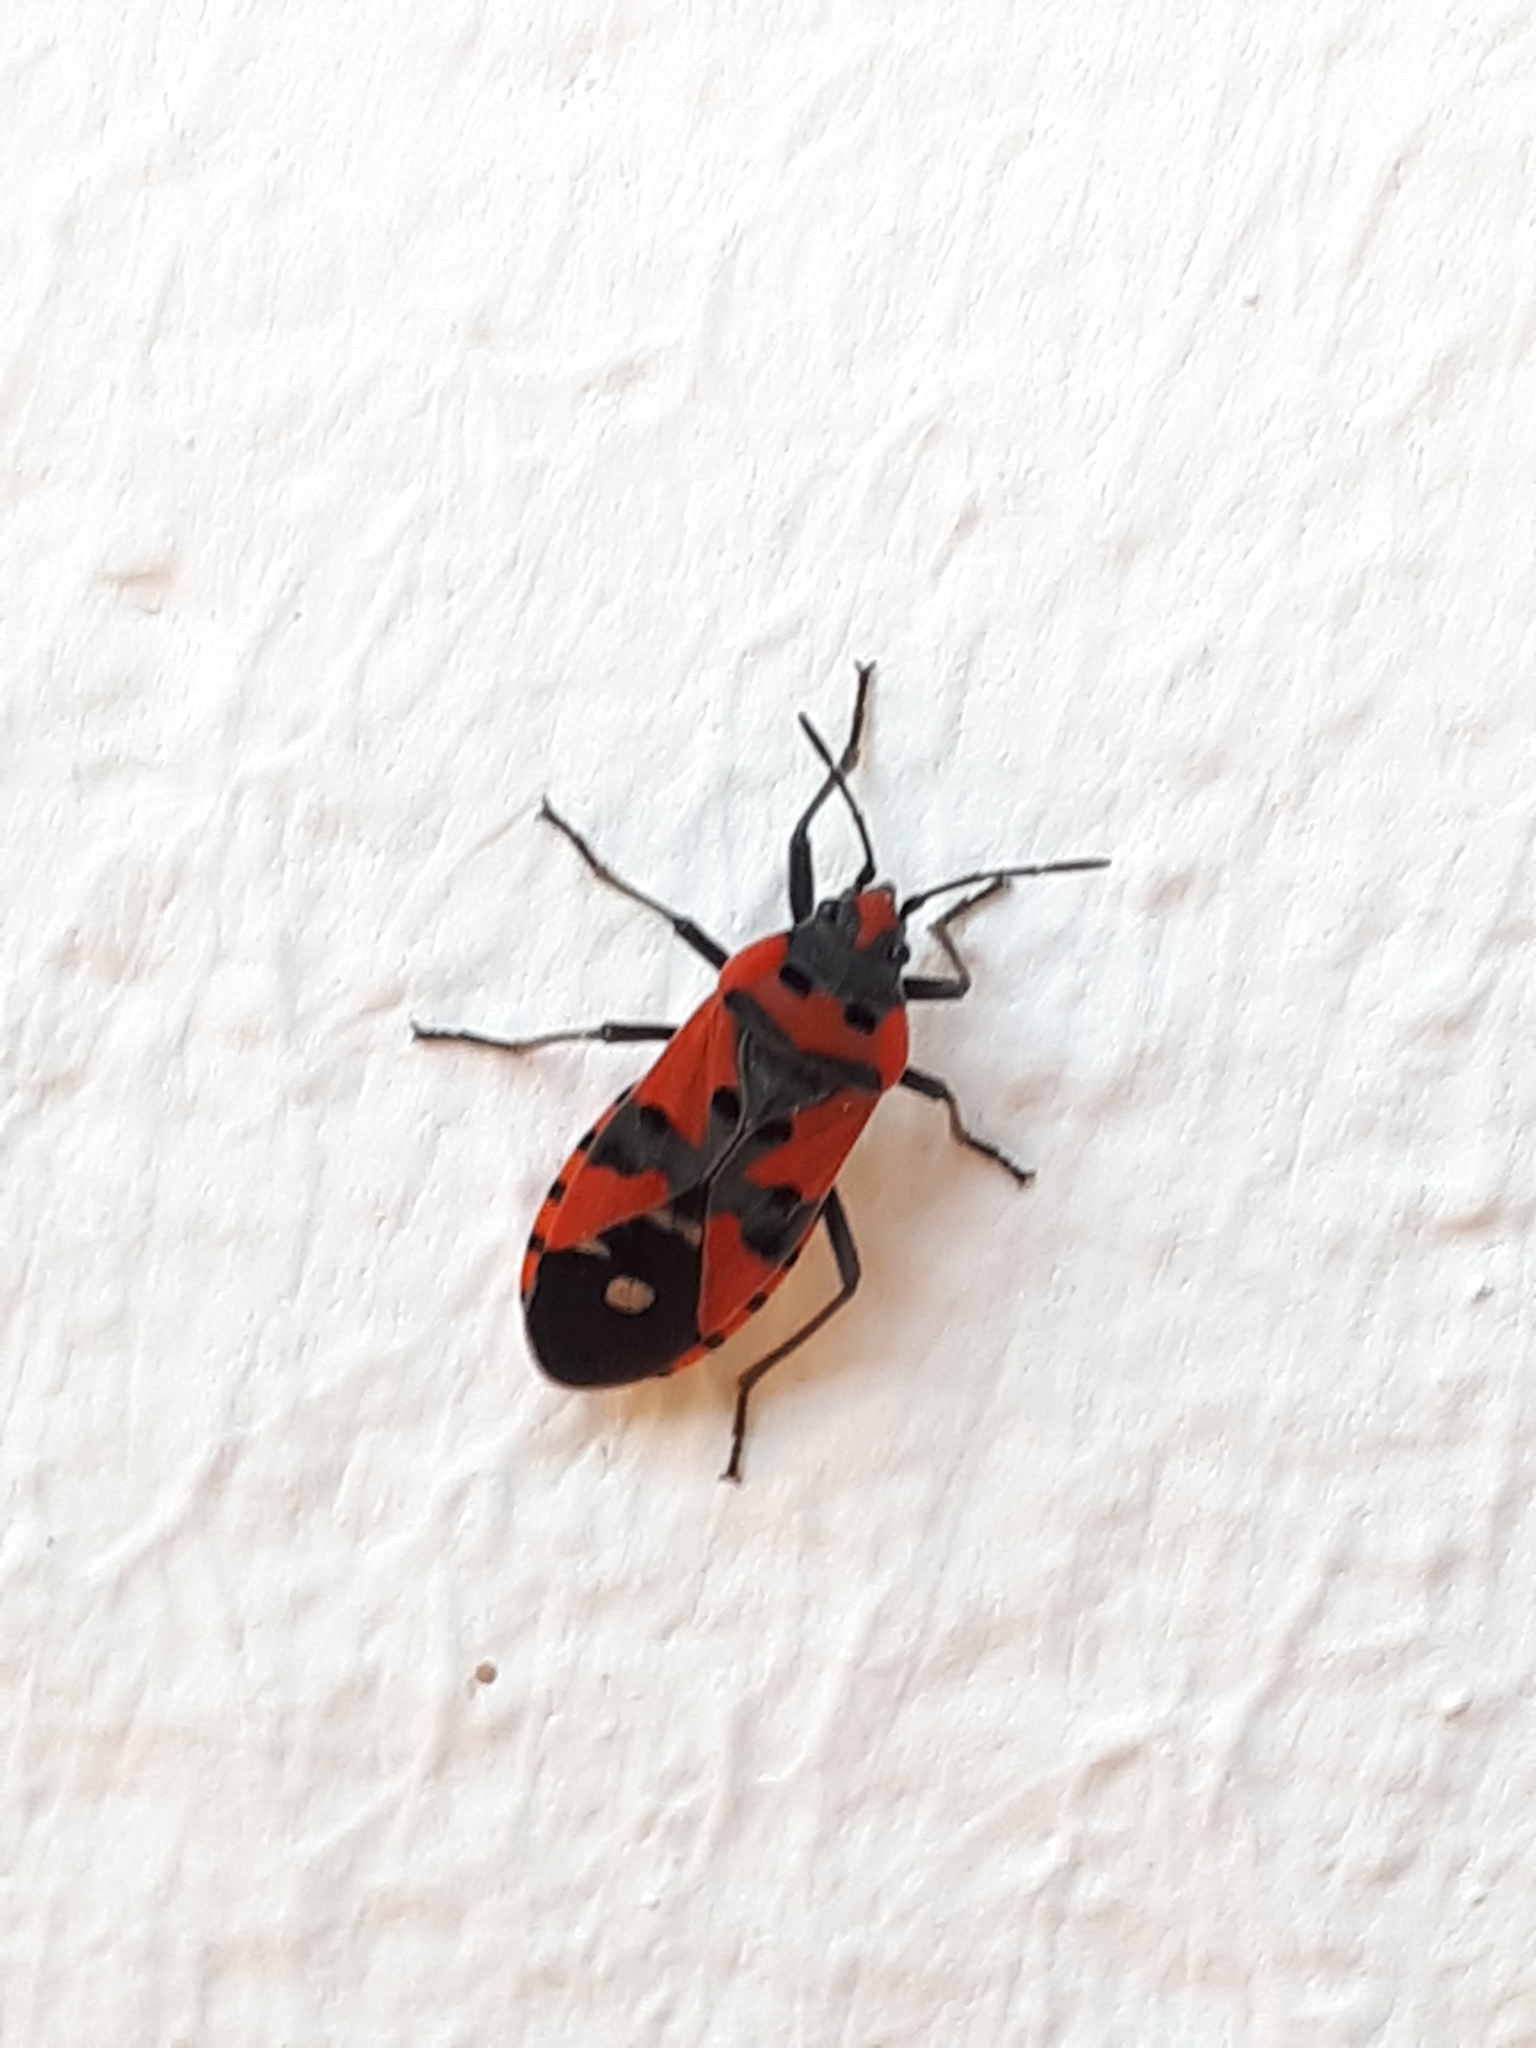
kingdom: Animalia
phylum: Arthropoda
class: Insecta
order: Hemiptera
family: Lygaeidae
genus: Lygaeus
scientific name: Lygaeus equestris
